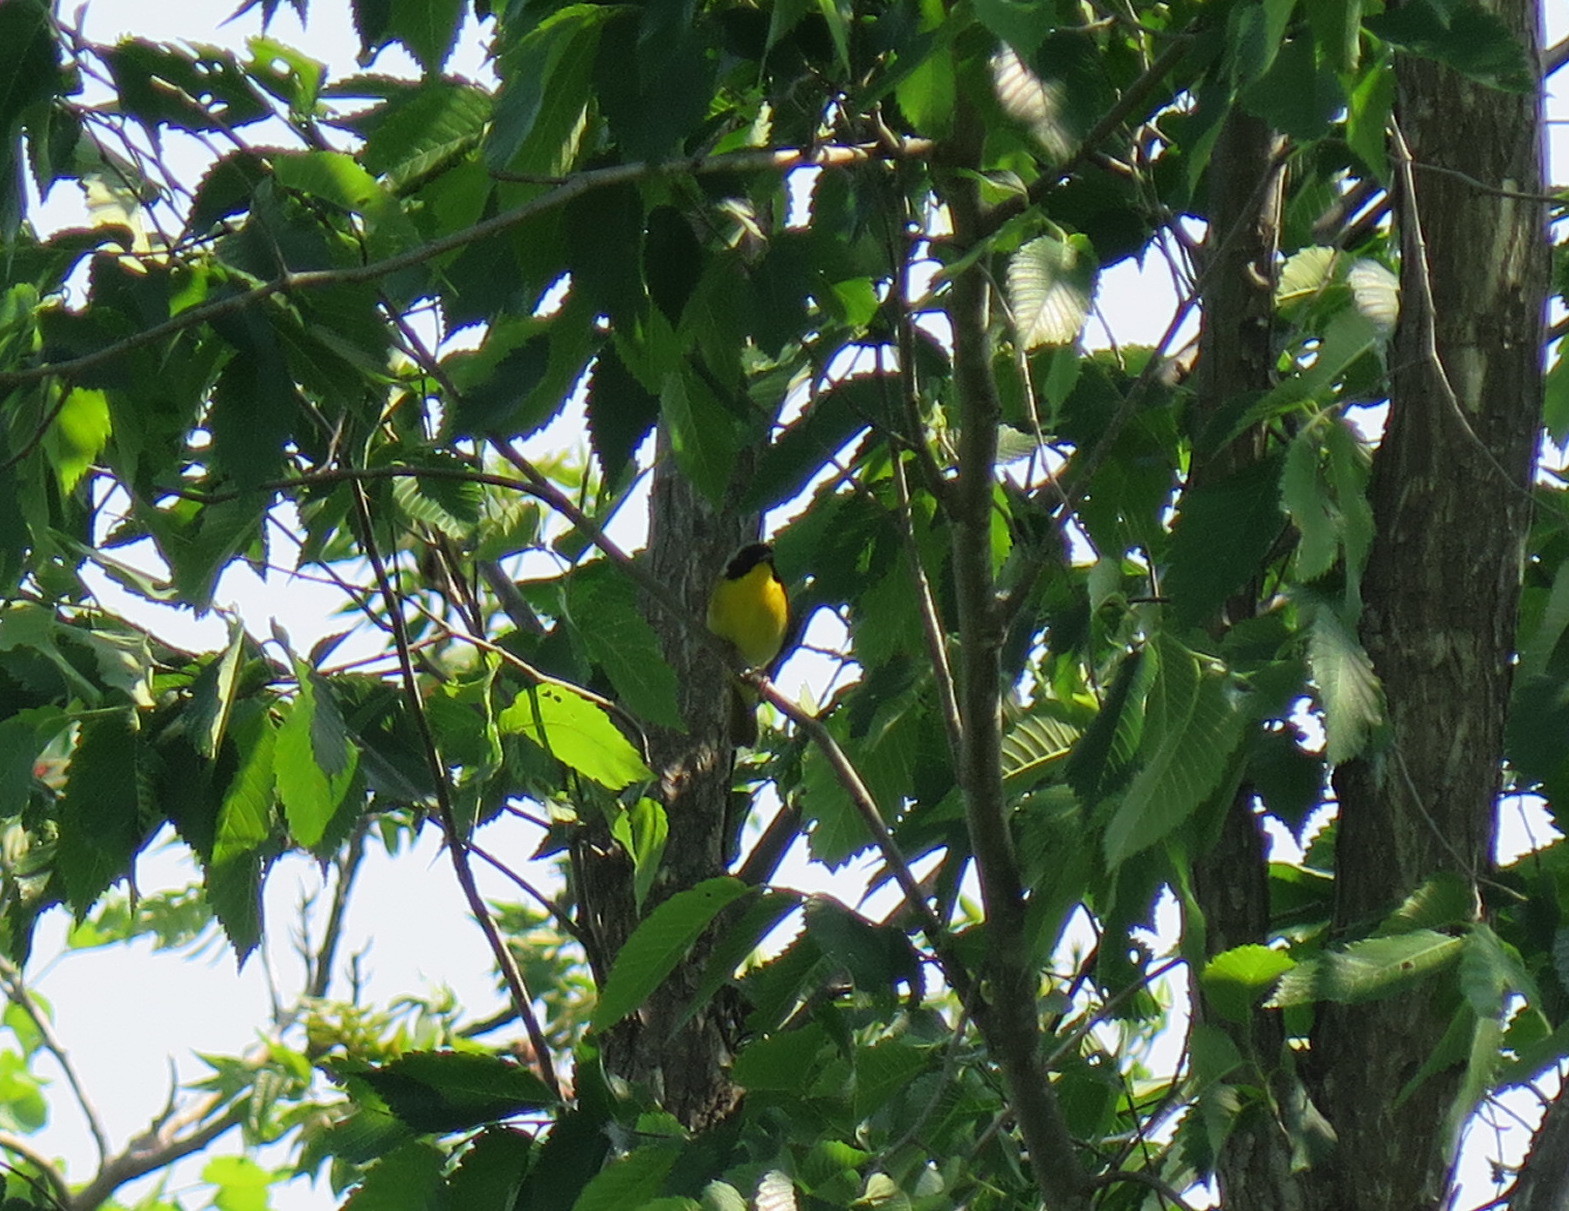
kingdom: Animalia
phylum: Chordata
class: Aves
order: Passeriformes
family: Parulidae
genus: Geothlypis
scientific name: Geothlypis trichas
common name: Common yellowthroat
